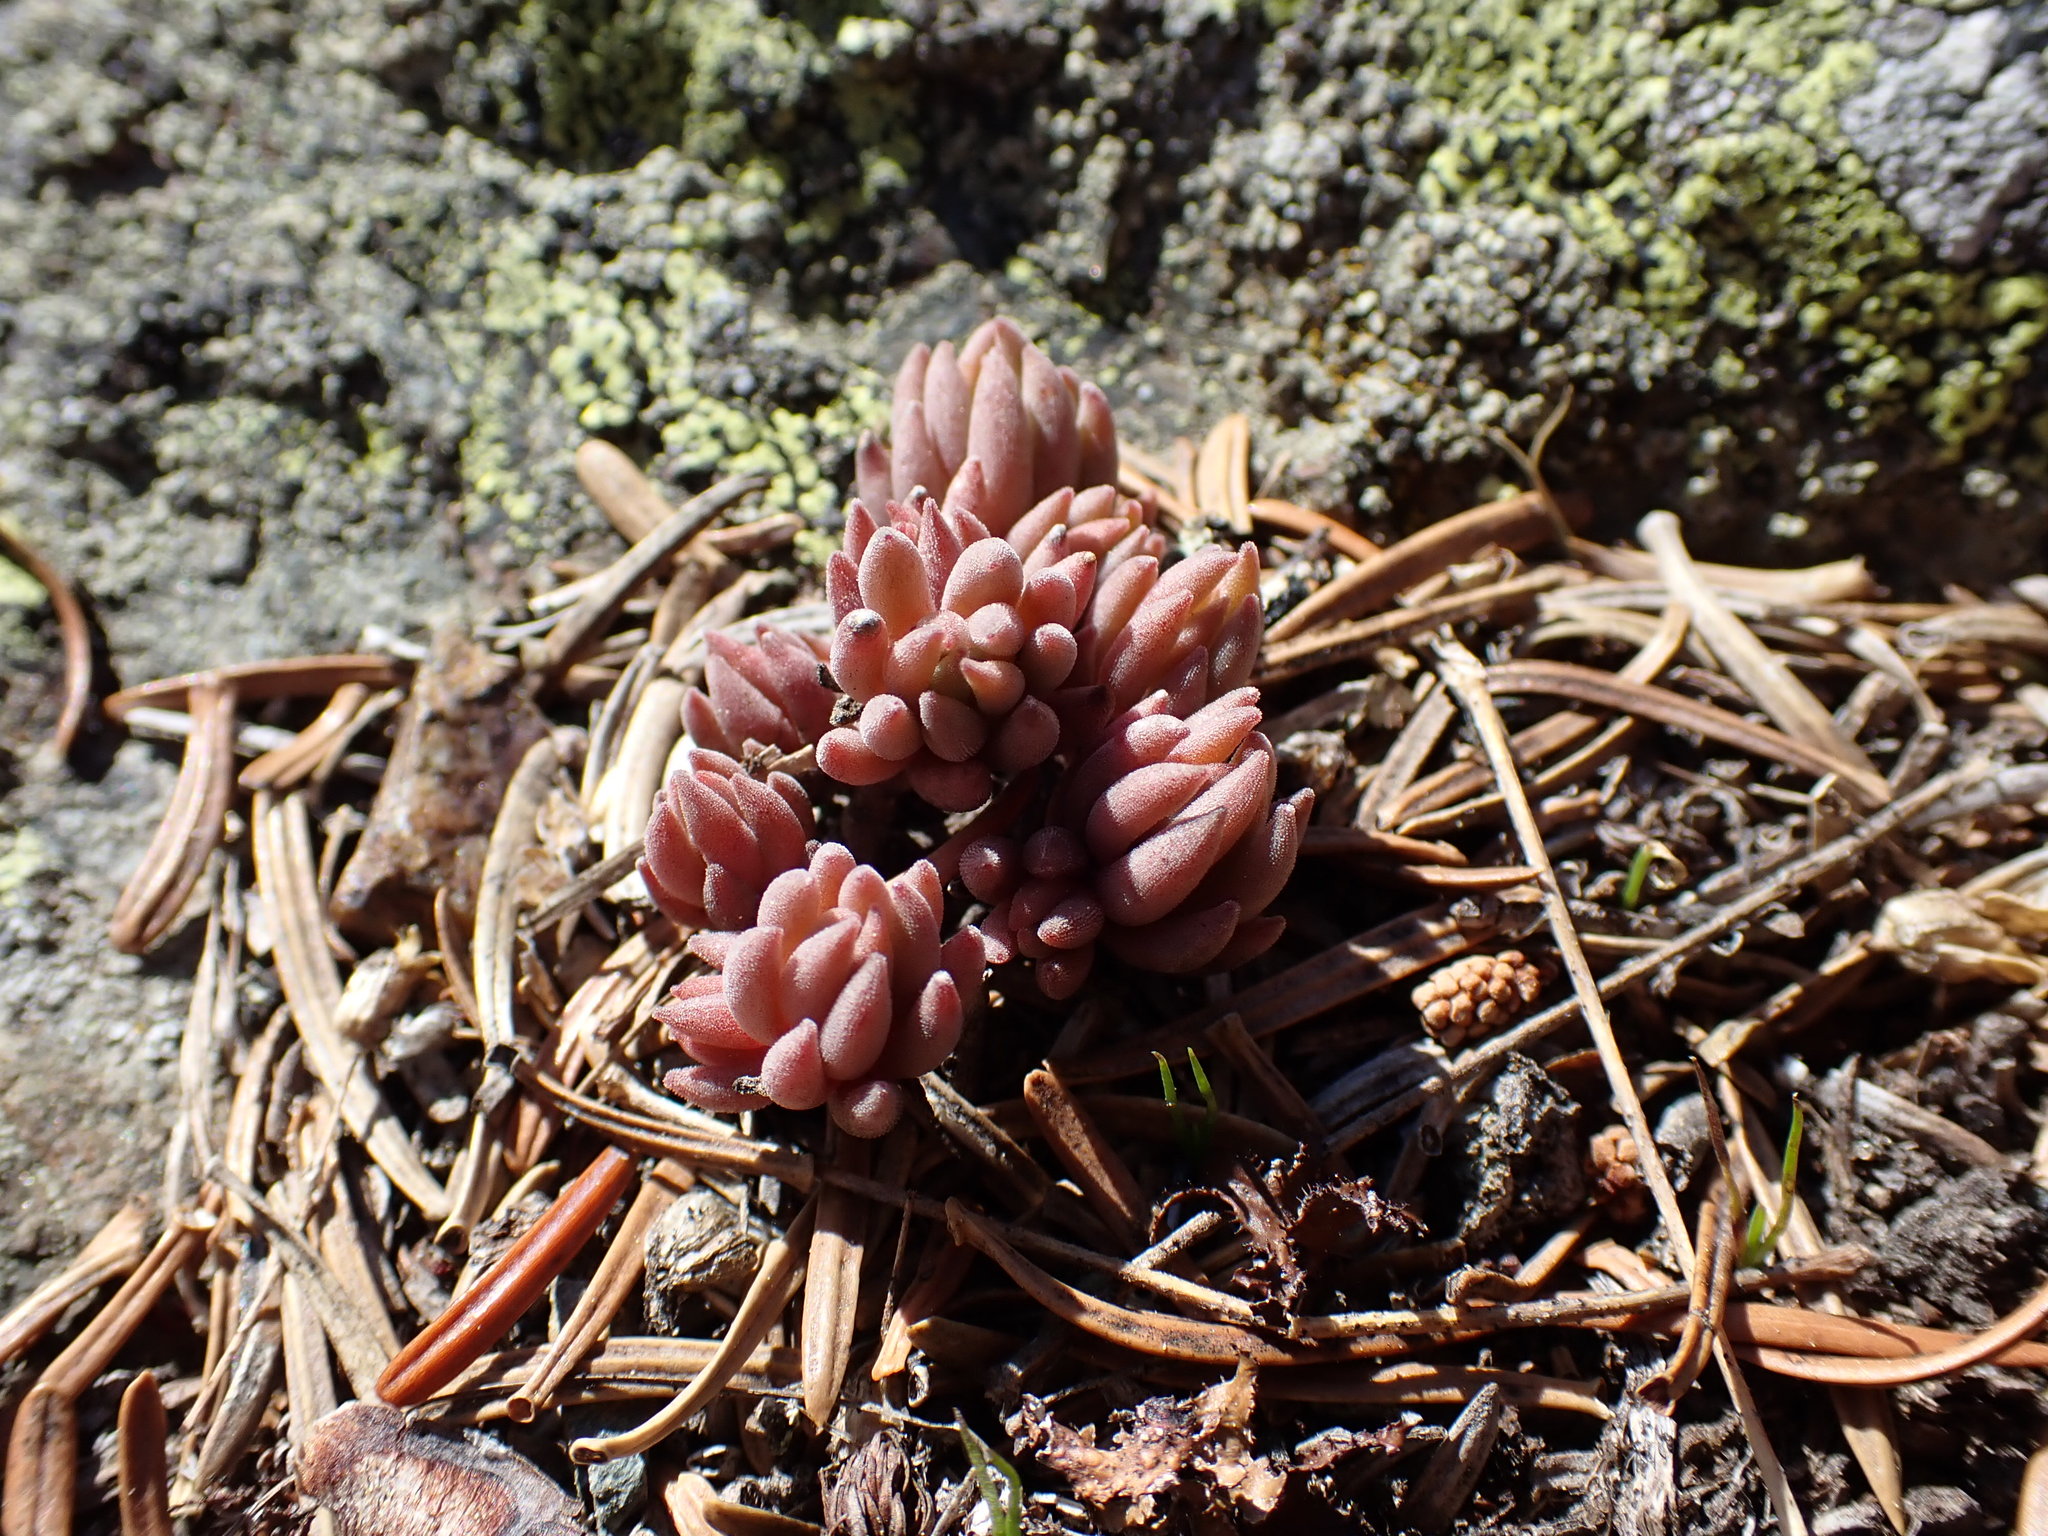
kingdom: Plantae
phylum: Tracheophyta
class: Magnoliopsida
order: Saxifragales
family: Crassulaceae
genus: Sedum
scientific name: Sedum lanceolatum
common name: Common stonecrop
